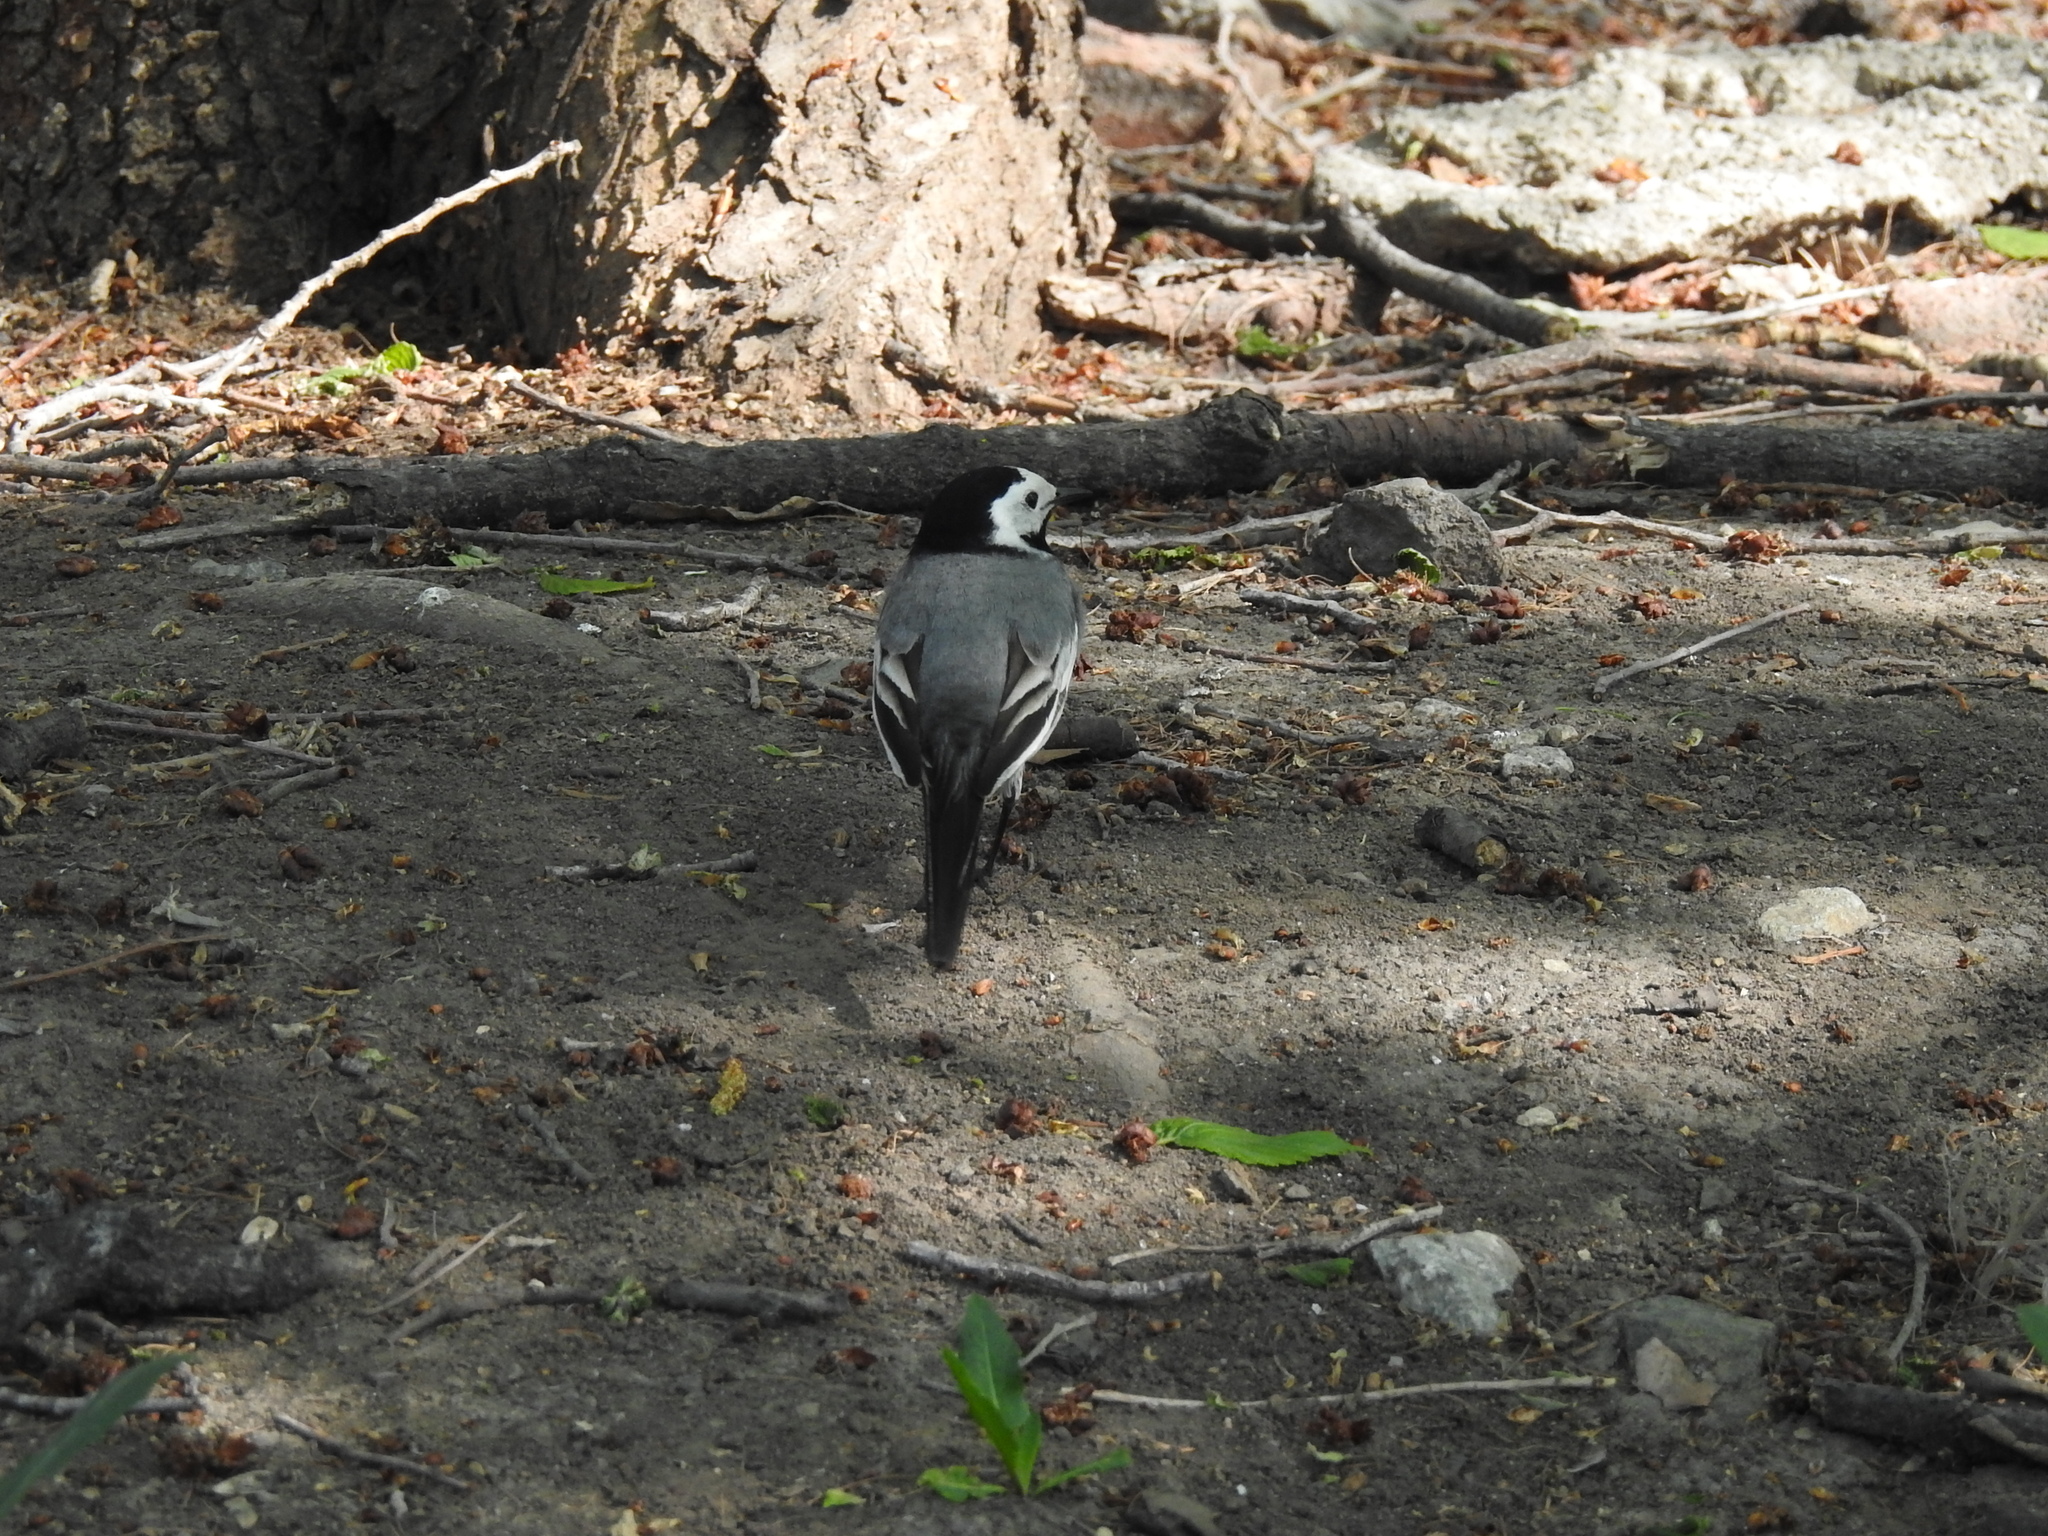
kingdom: Animalia
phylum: Chordata
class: Aves
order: Passeriformes
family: Motacillidae
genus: Motacilla
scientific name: Motacilla alba
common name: White wagtail
